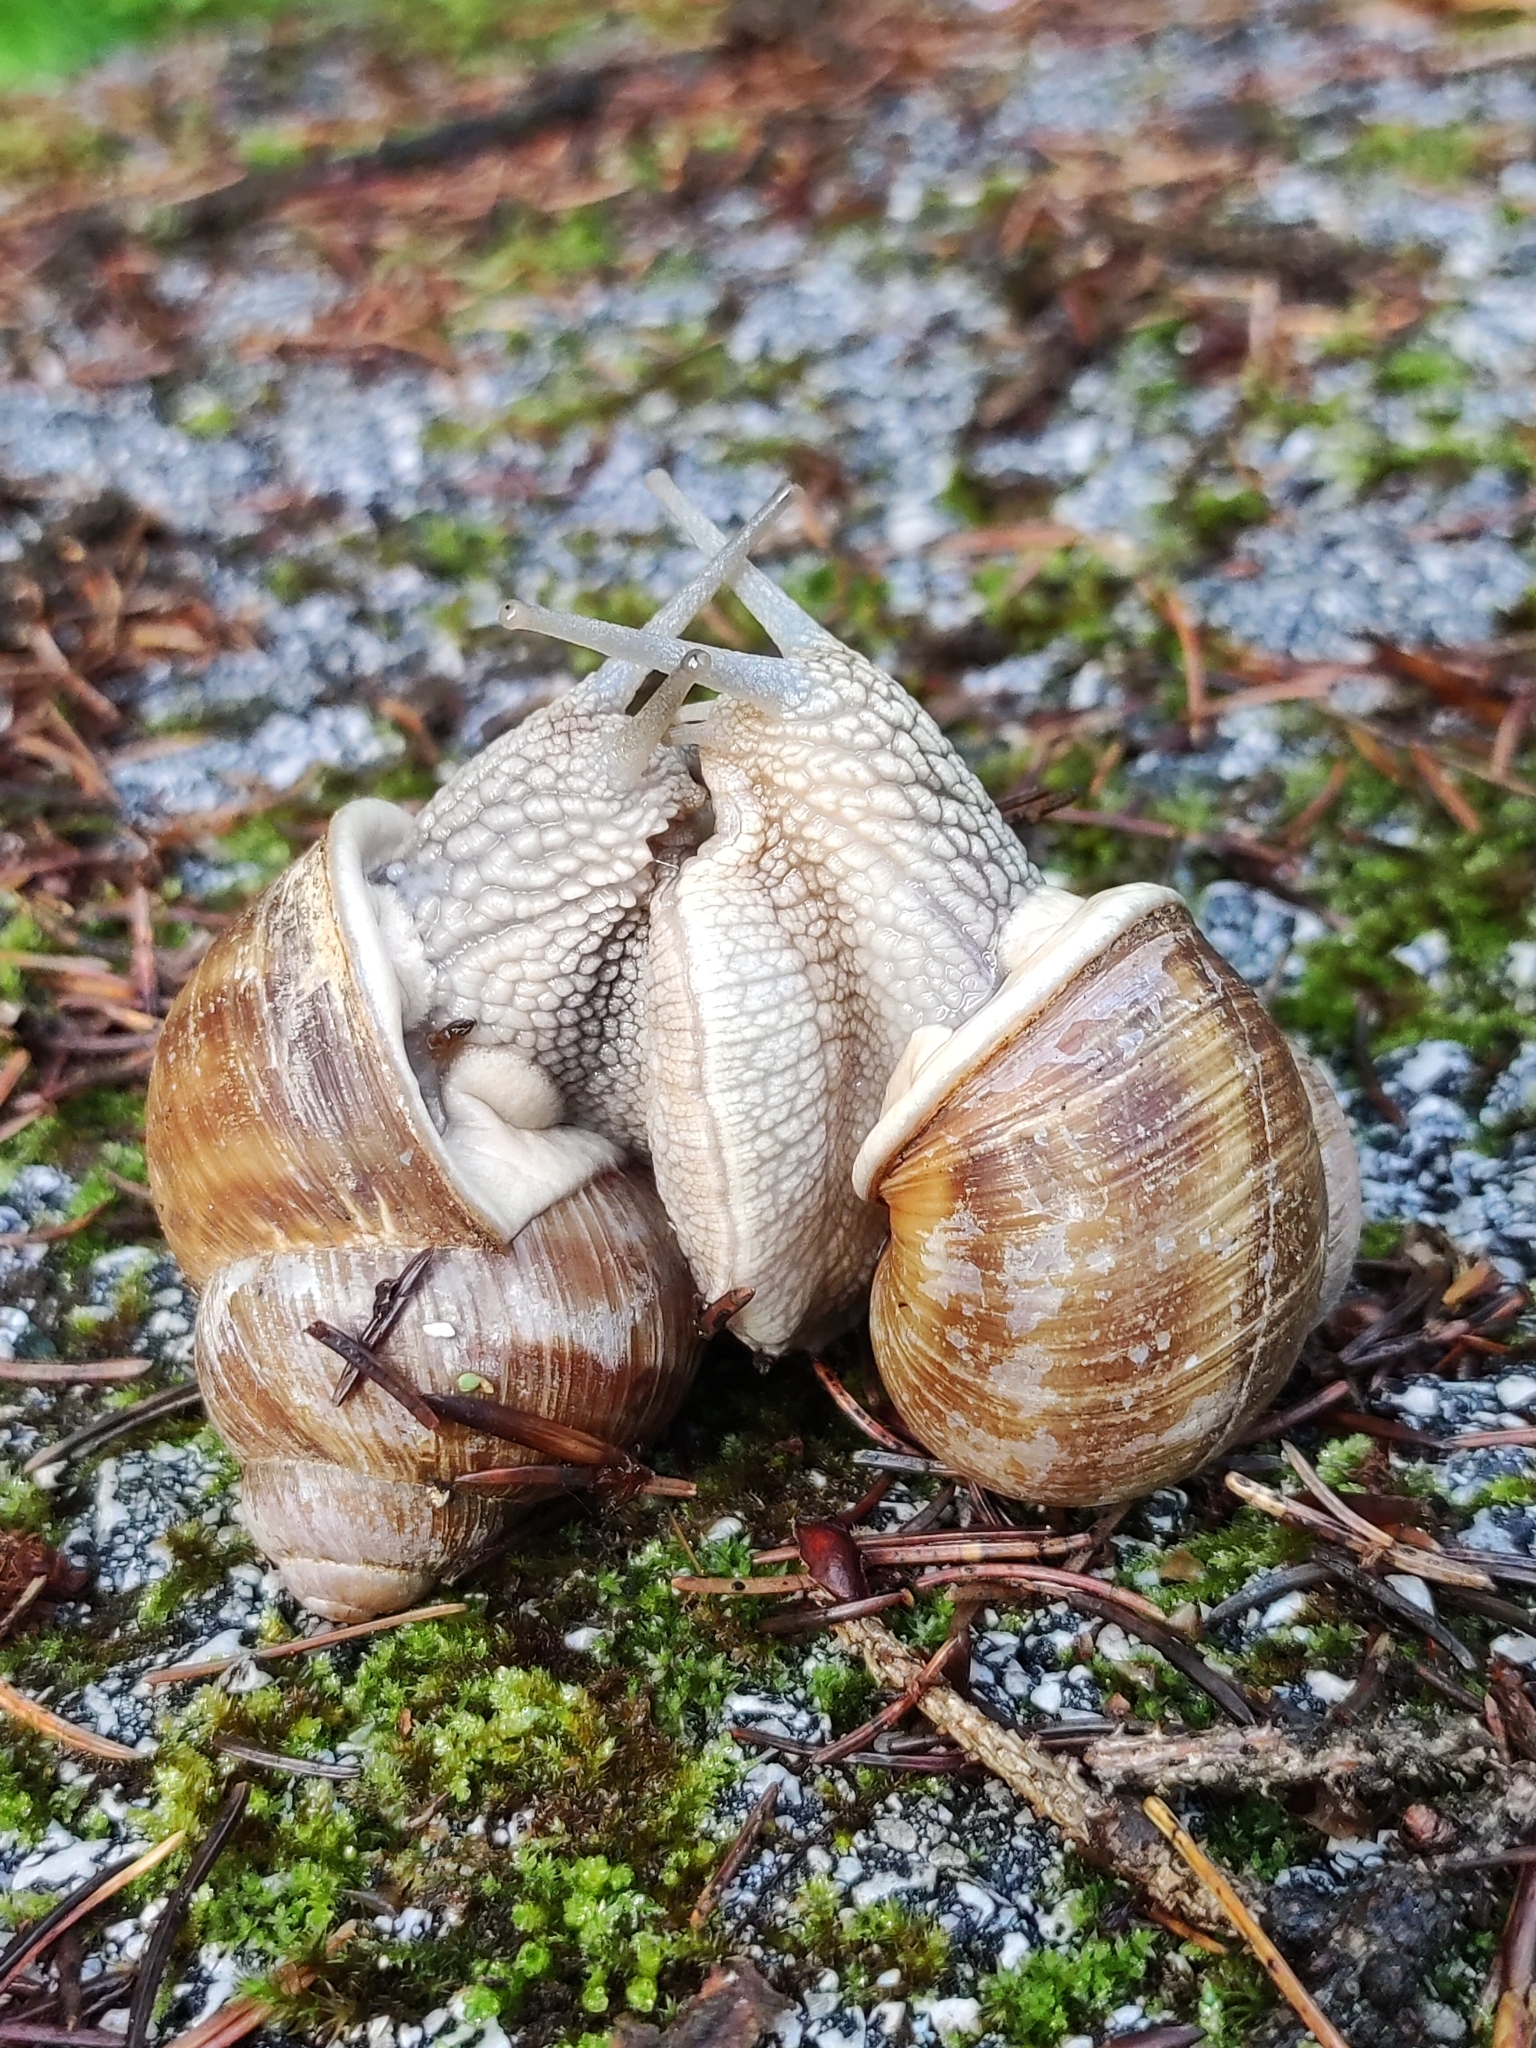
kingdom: Animalia
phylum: Mollusca
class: Gastropoda
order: Stylommatophora
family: Helicidae
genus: Helix
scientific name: Helix pomatia
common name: Roman snail
